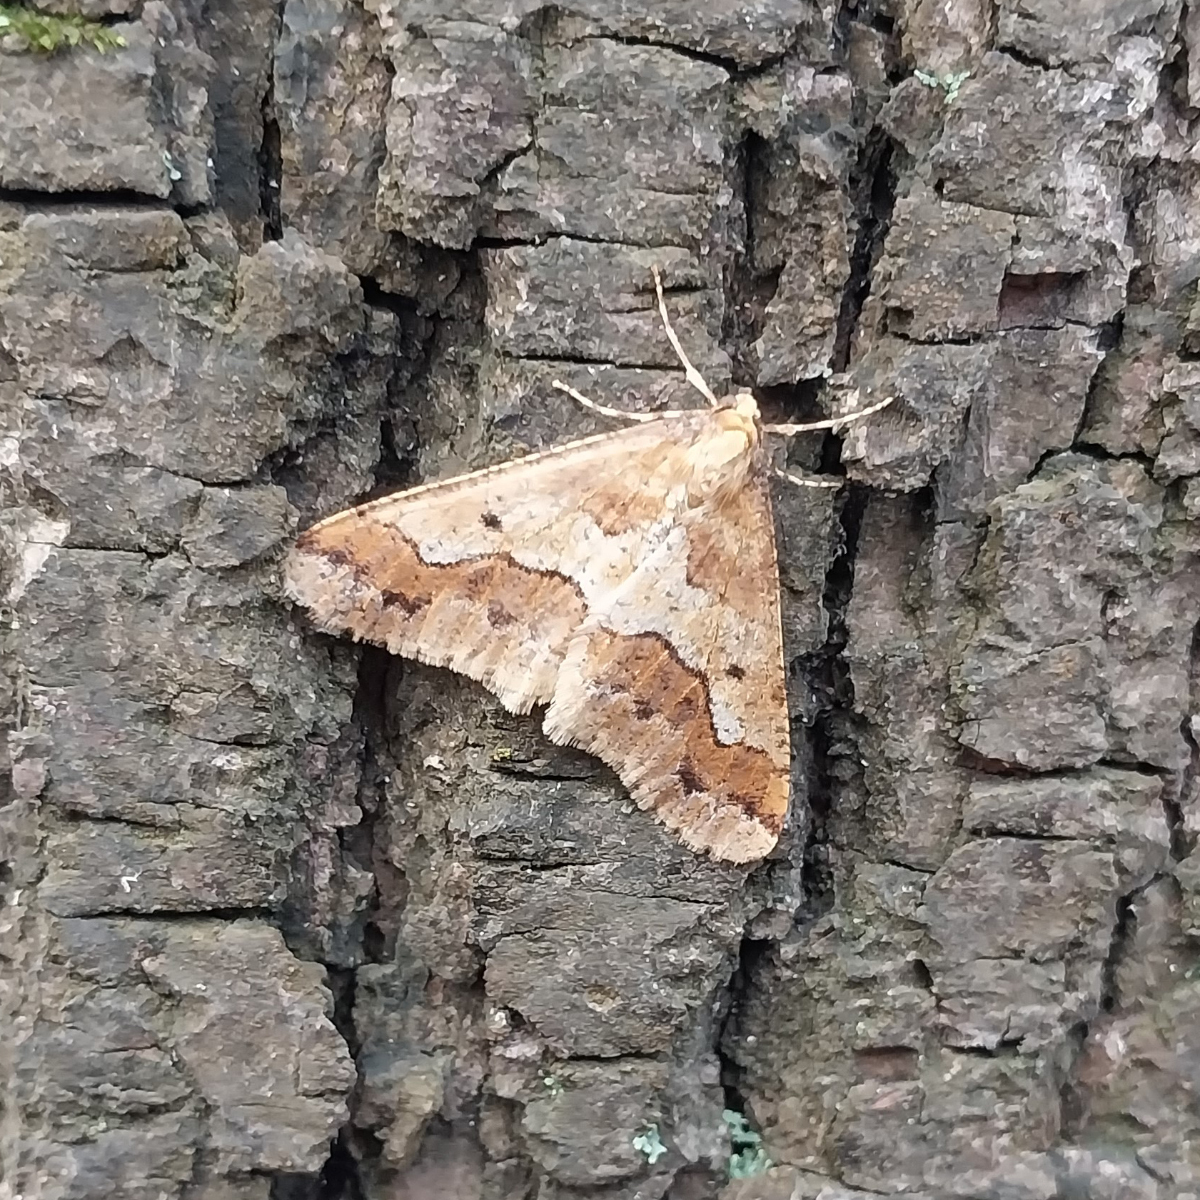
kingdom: Animalia
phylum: Arthropoda
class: Insecta
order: Lepidoptera
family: Geometridae
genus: Erannis
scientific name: Erannis defoliaria
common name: Mottled umber
